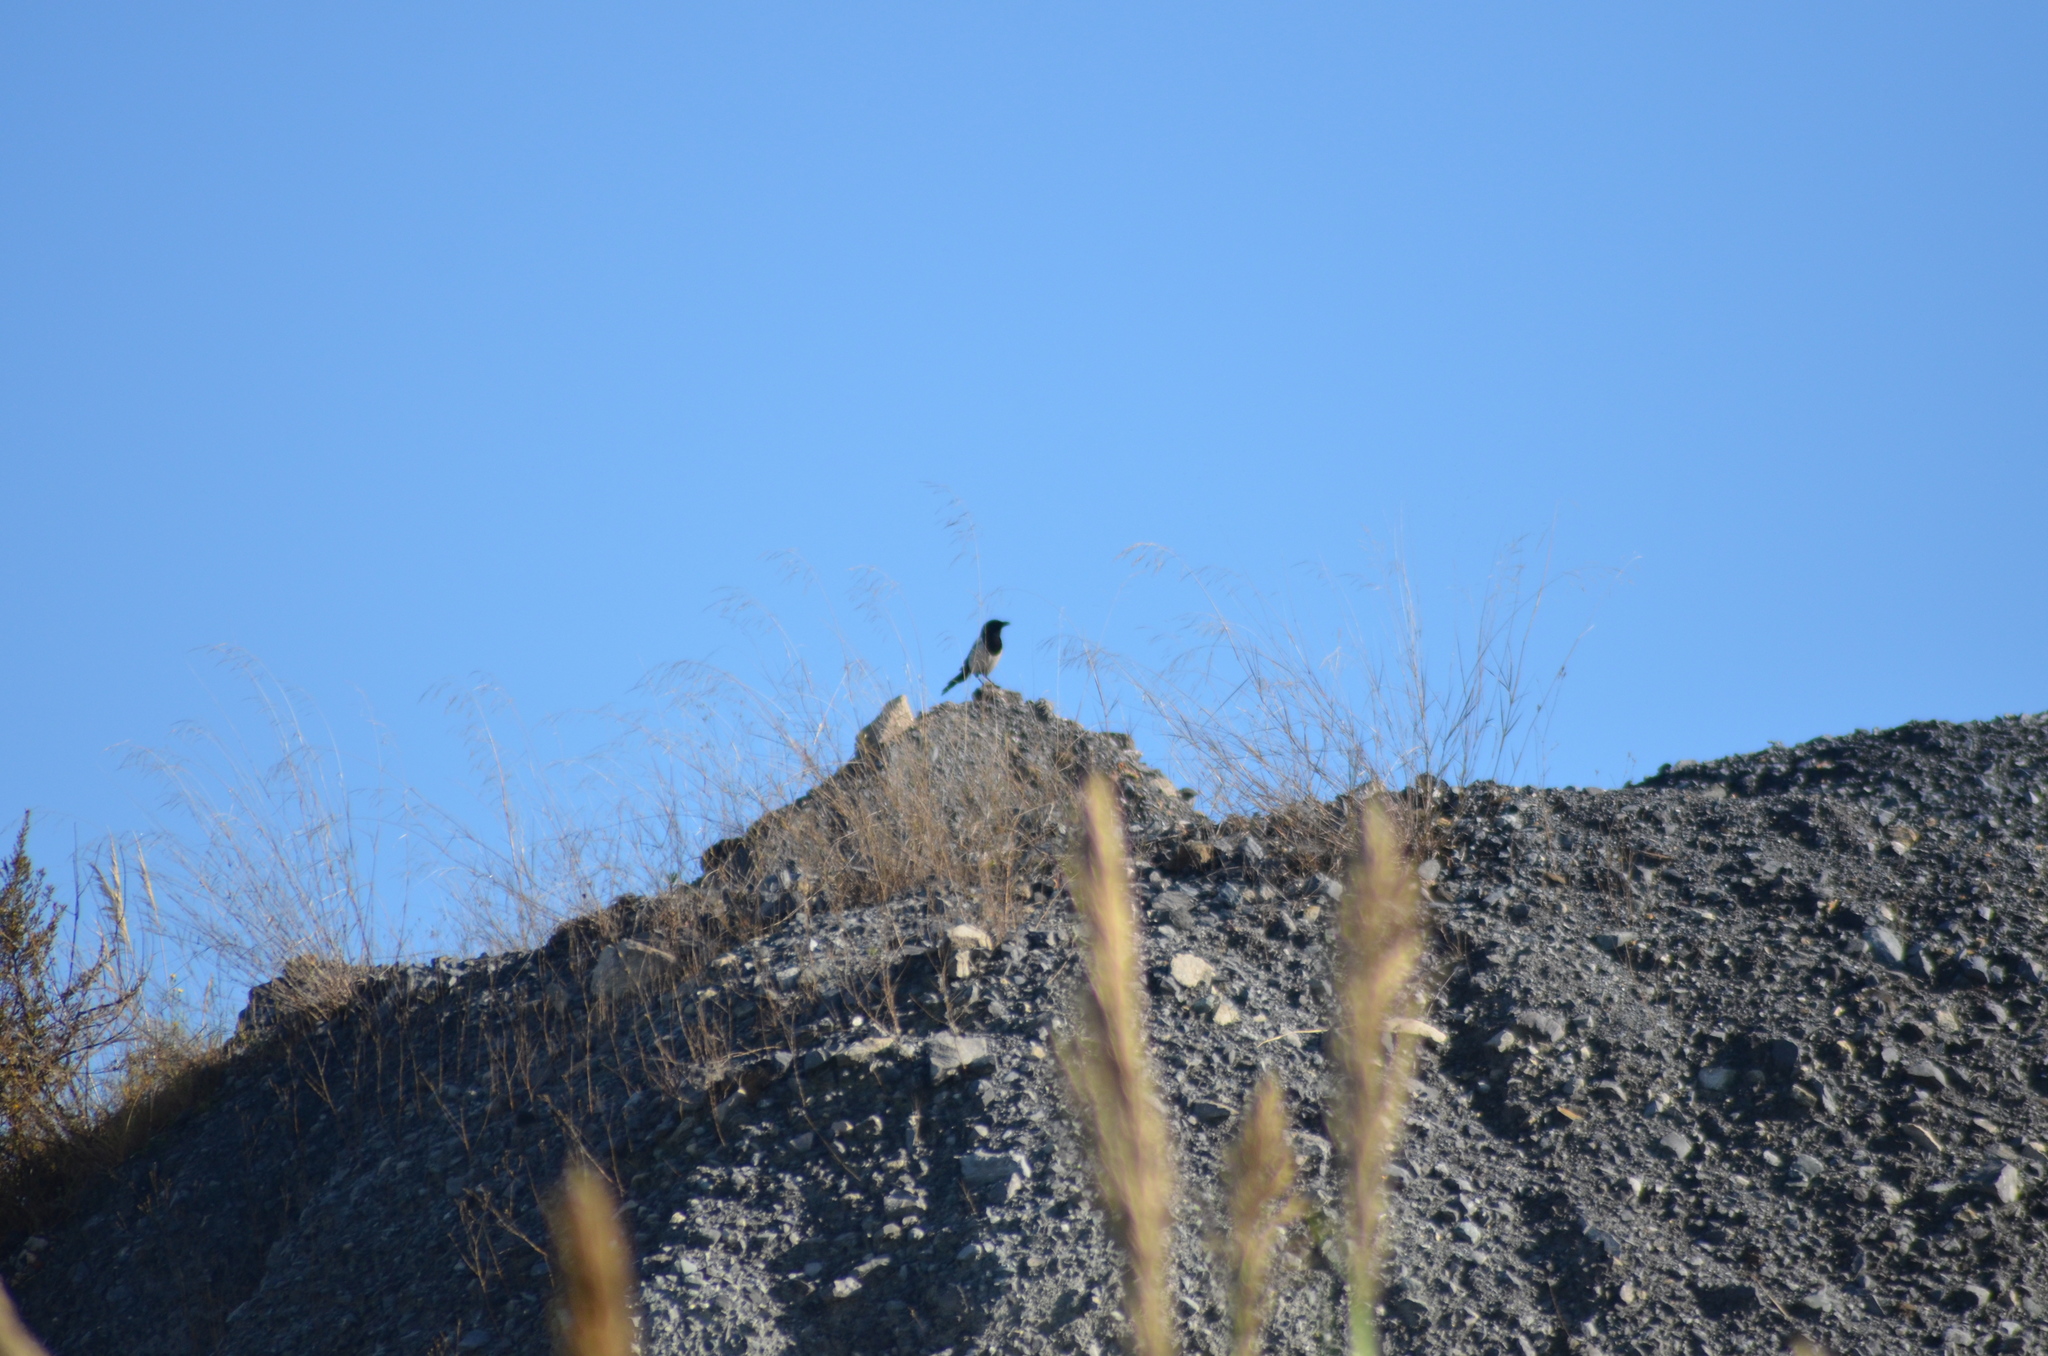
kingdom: Animalia
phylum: Chordata
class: Aves
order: Passeriformes
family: Corvidae
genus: Pica
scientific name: Pica pica
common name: Eurasian magpie
